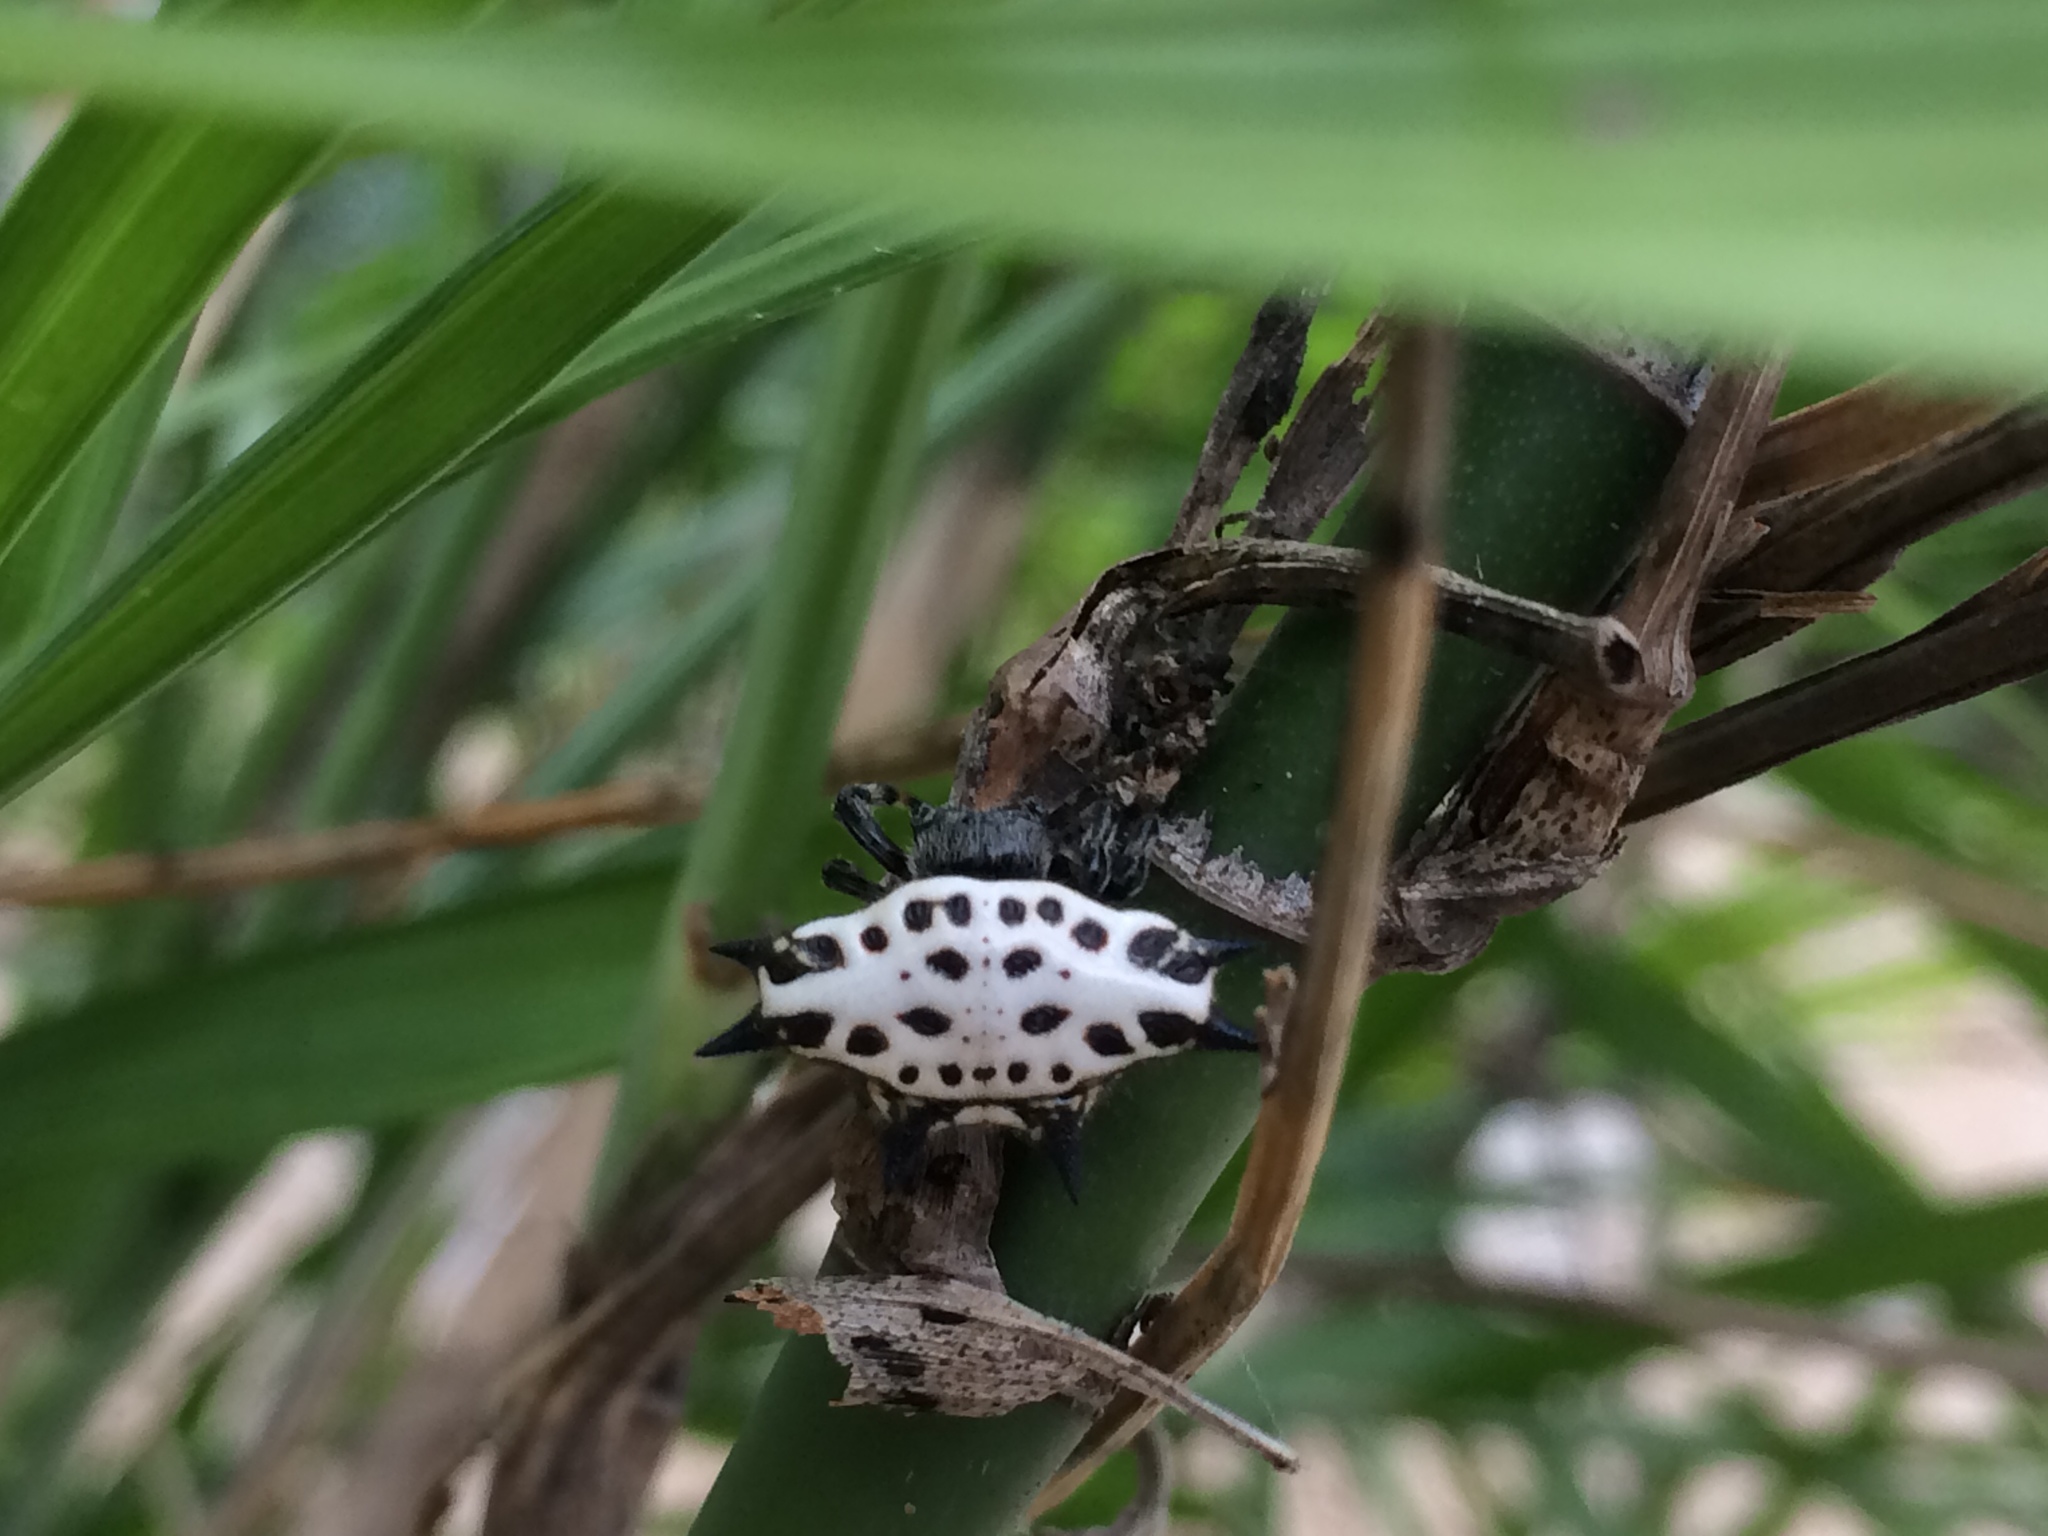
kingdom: Animalia
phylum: Arthropoda
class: Arachnida
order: Araneae
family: Araneidae
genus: Gasteracantha
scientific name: Gasteracantha cancriformis
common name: Orb weavers
